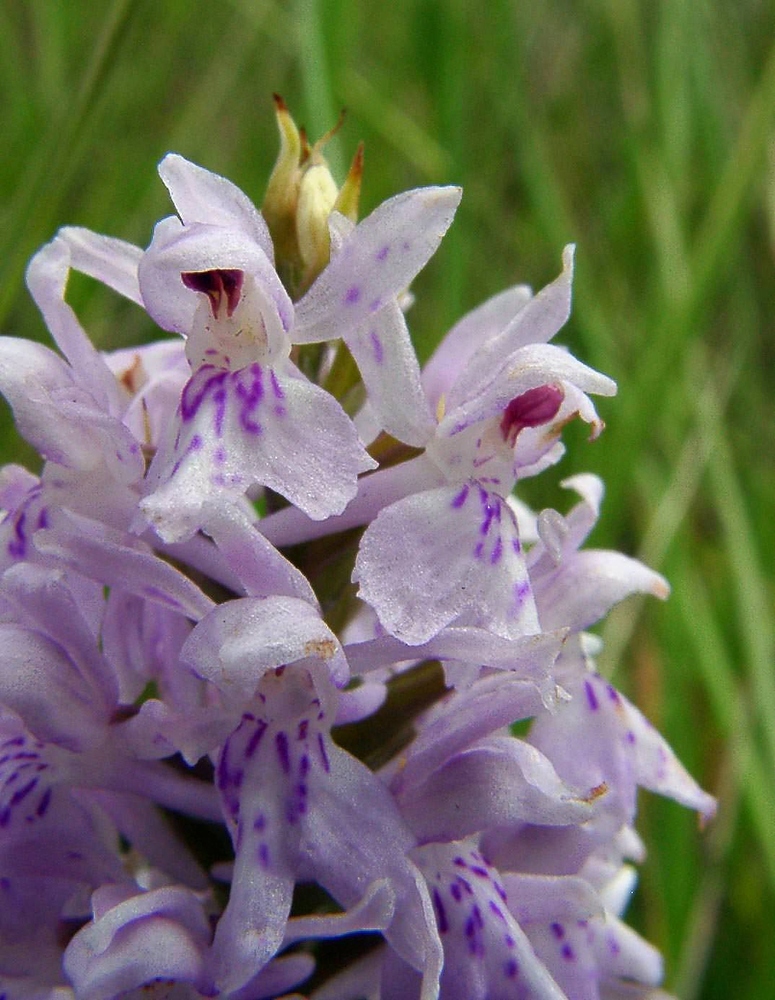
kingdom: Plantae
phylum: Tracheophyta
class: Liliopsida
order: Asparagales
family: Orchidaceae
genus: Dactylorhiza
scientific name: Dactylorhiza maculata
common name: Heath spotted-orchid
